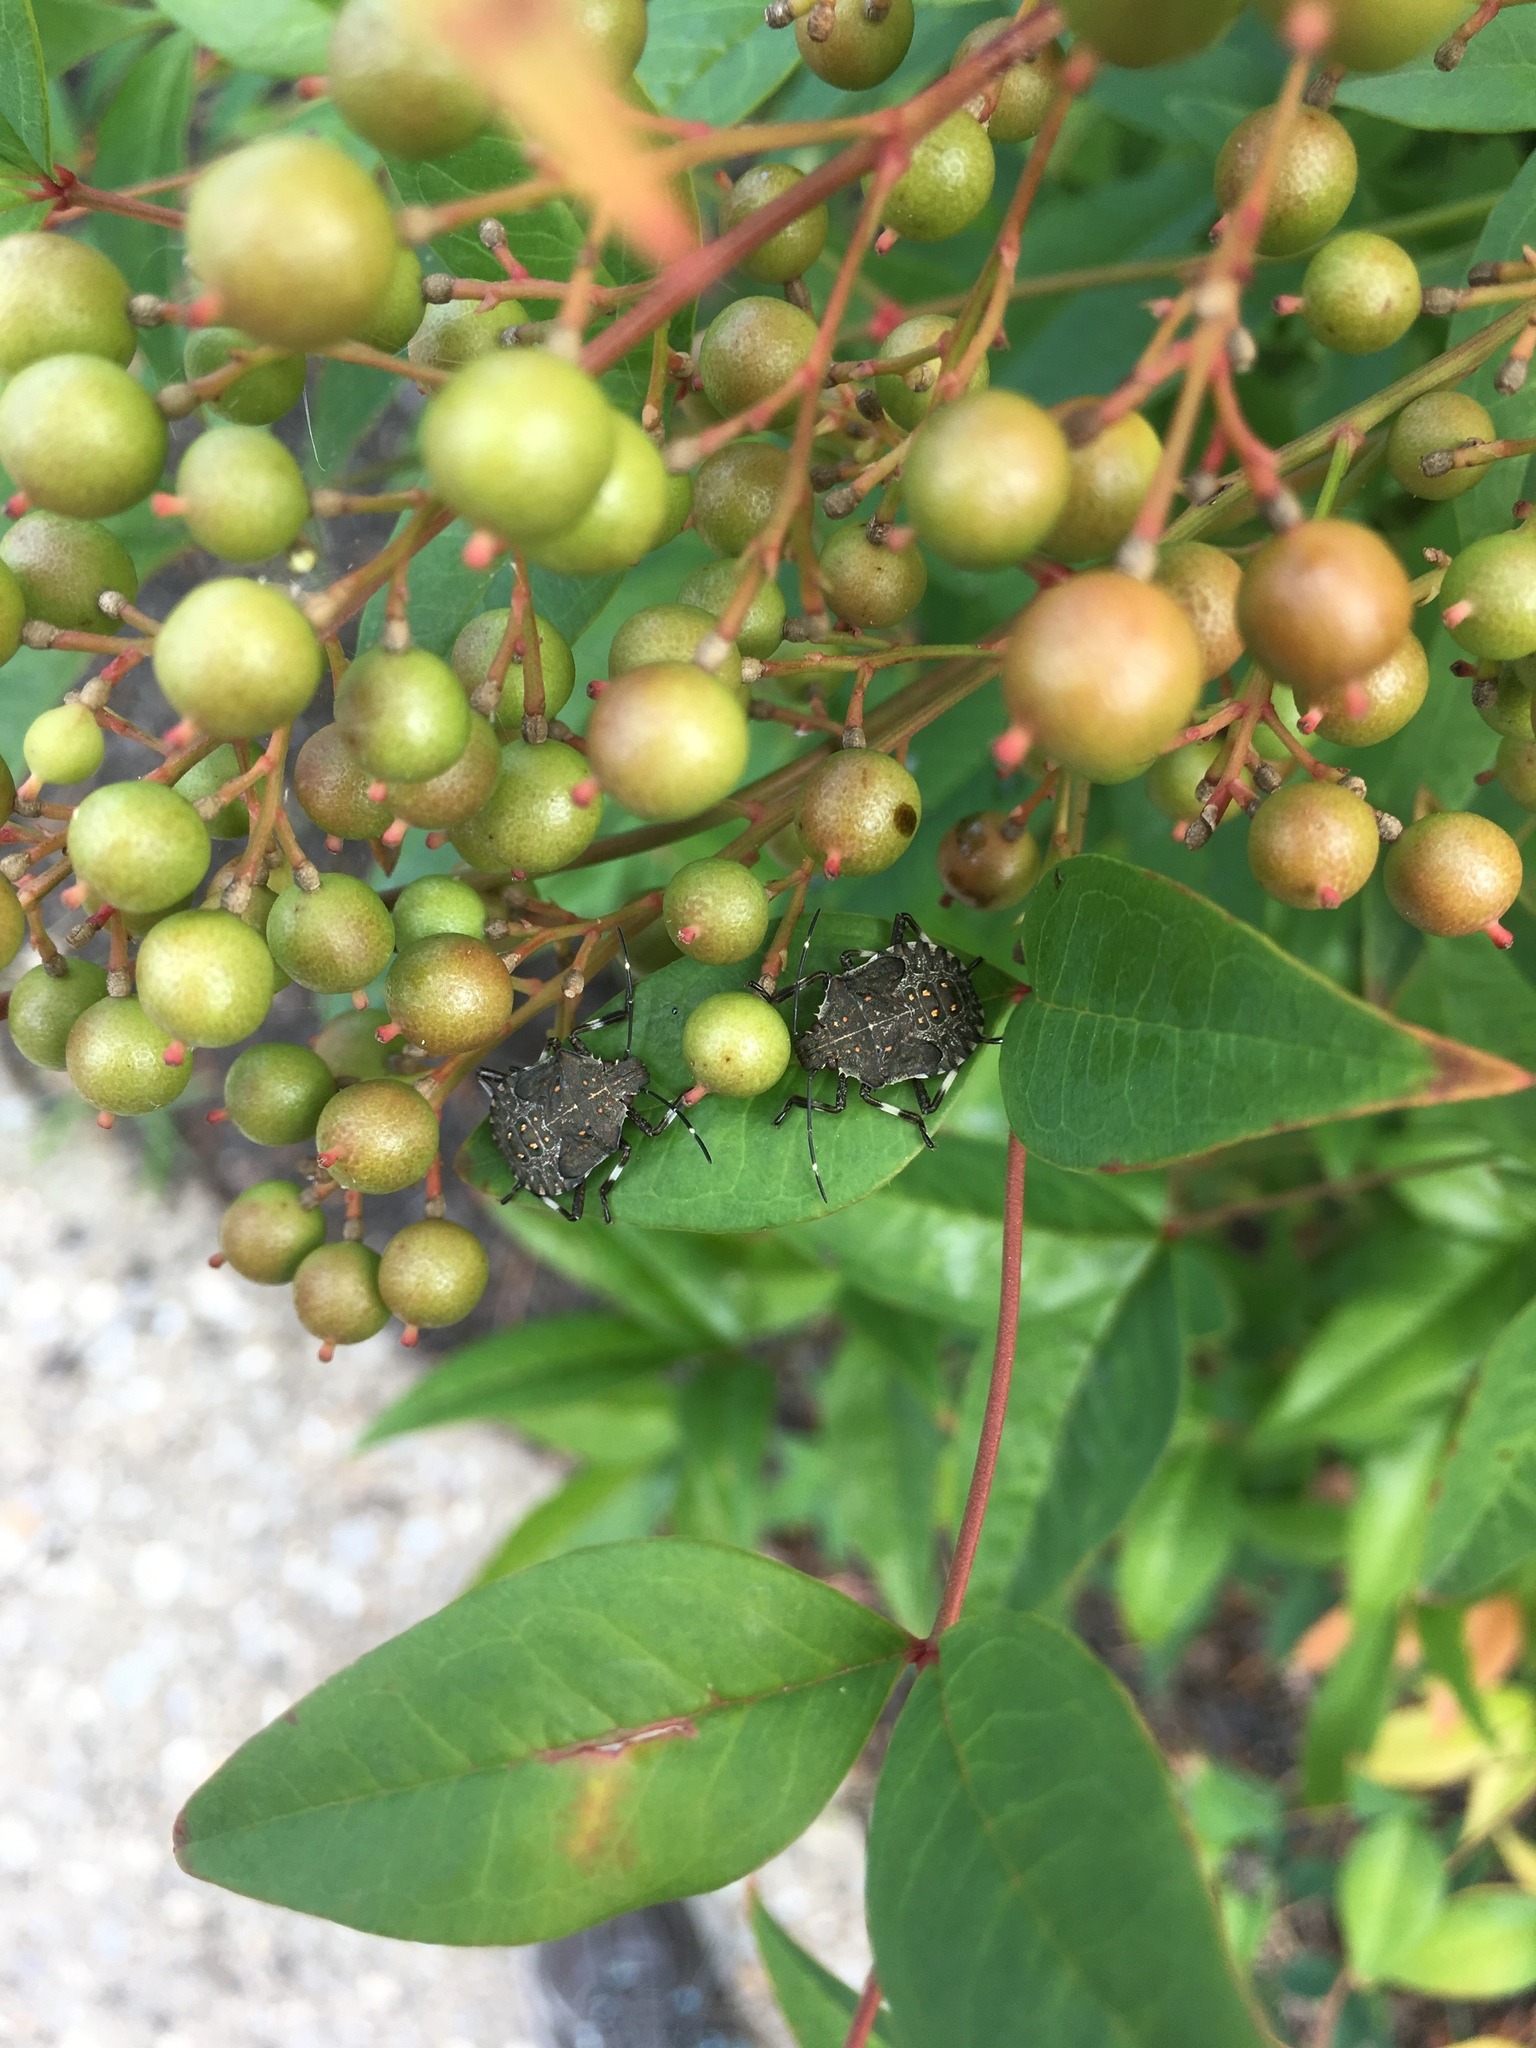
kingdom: Animalia
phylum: Arthropoda
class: Insecta
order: Hemiptera
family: Pentatomidae
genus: Halyomorpha
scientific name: Halyomorpha halys
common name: Brown marmorated stink bug
